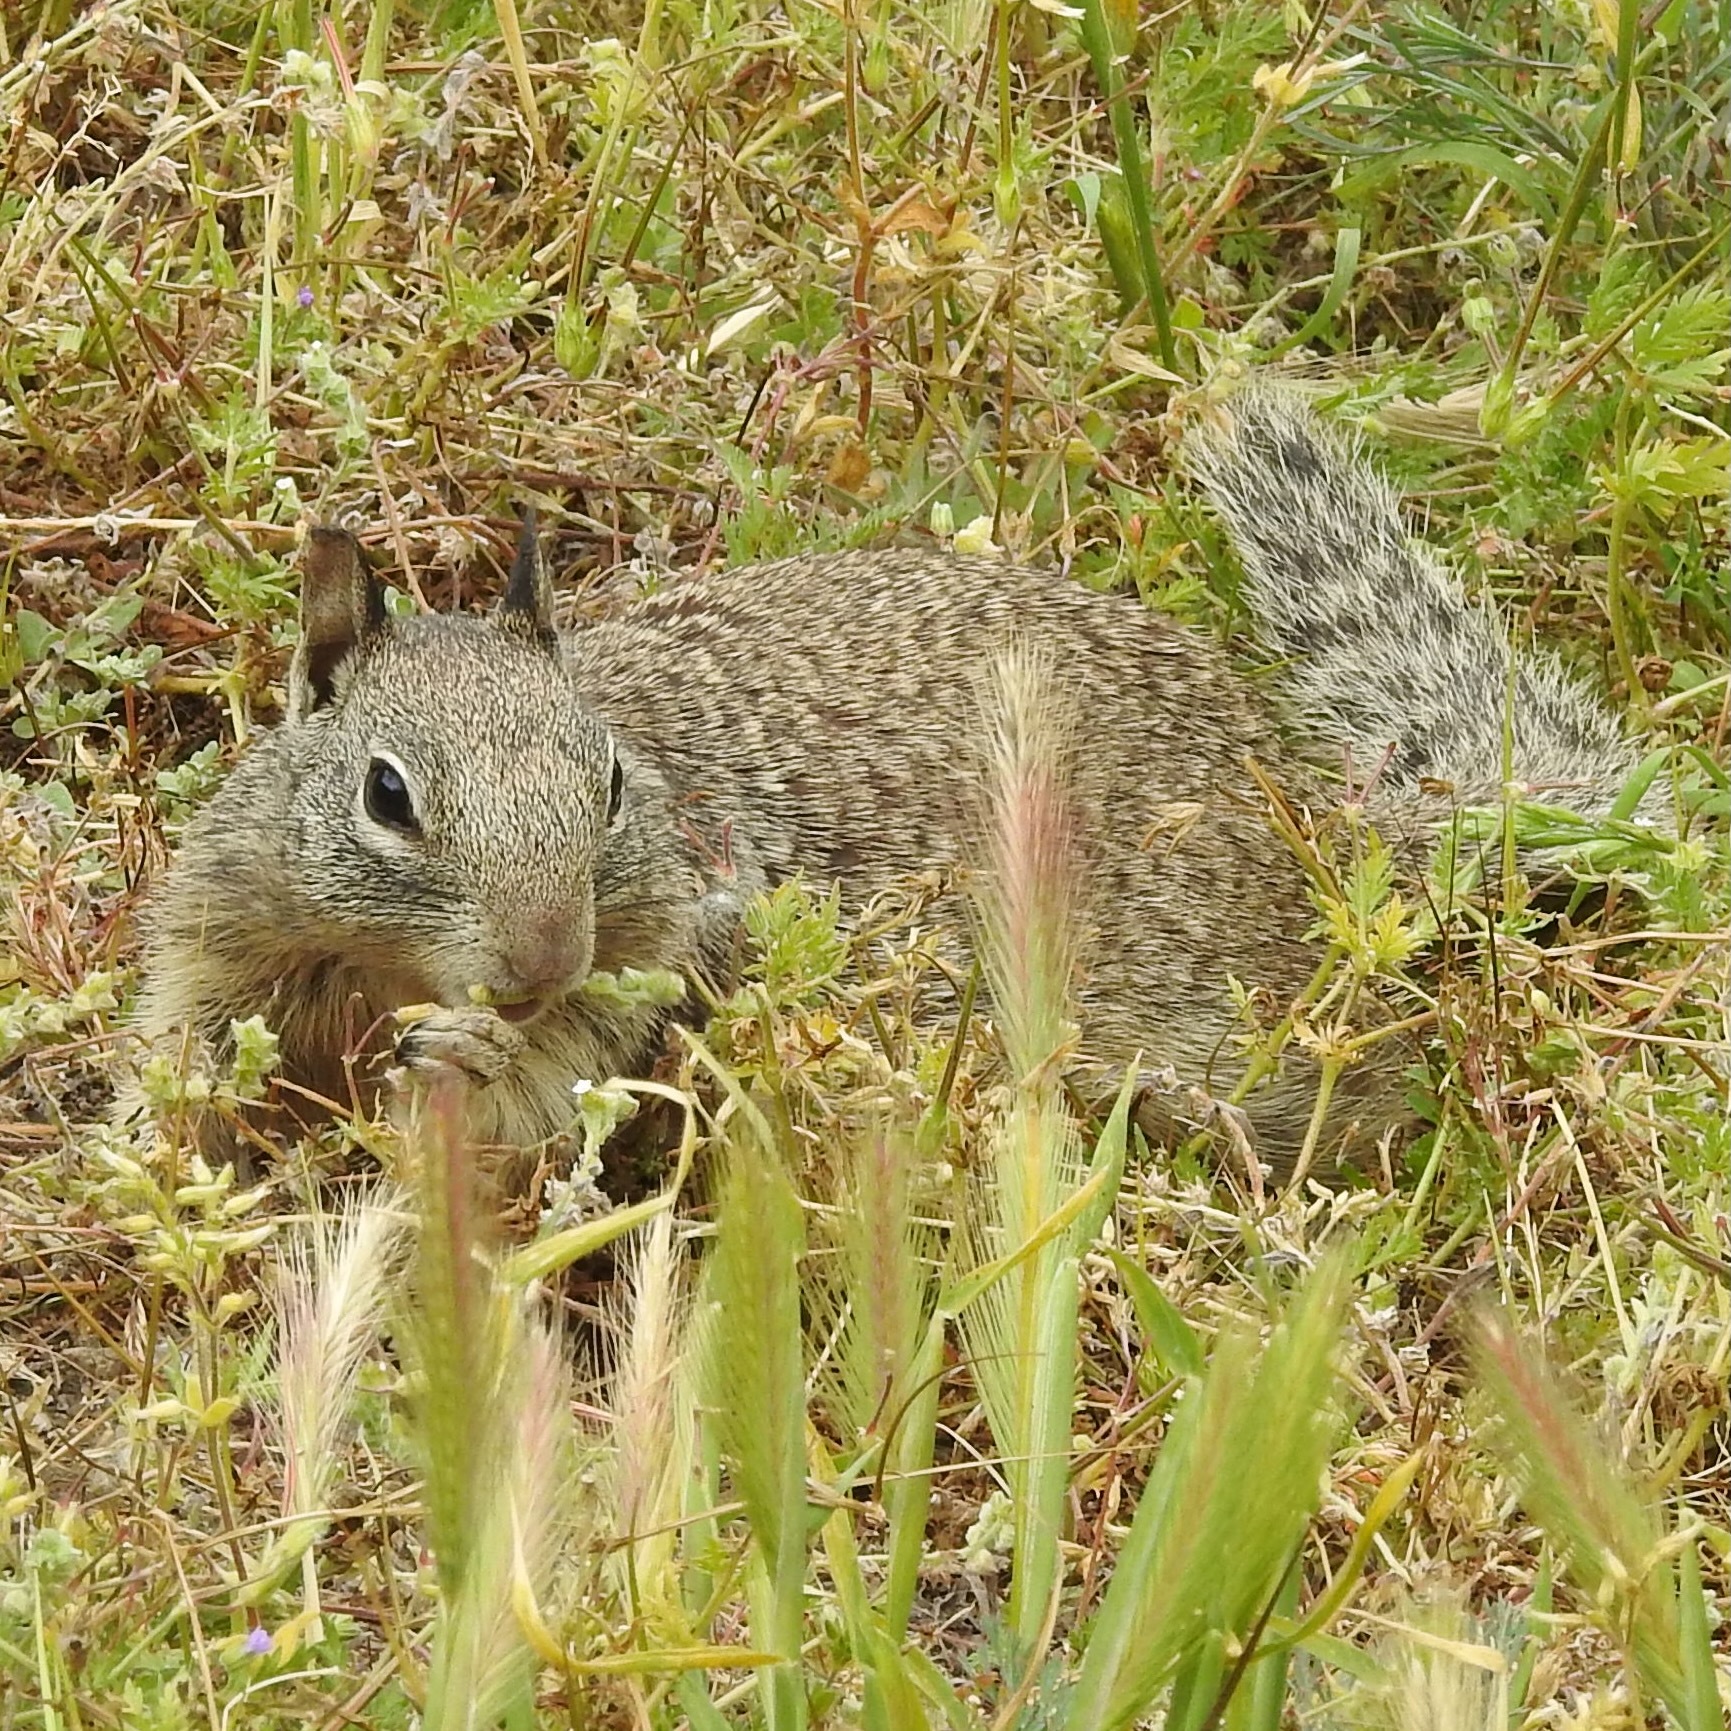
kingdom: Animalia
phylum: Chordata
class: Mammalia
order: Rodentia
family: Sciuridae
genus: Otospermophilus
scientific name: Otospermophilus beecheyi
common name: California ground squirrel
